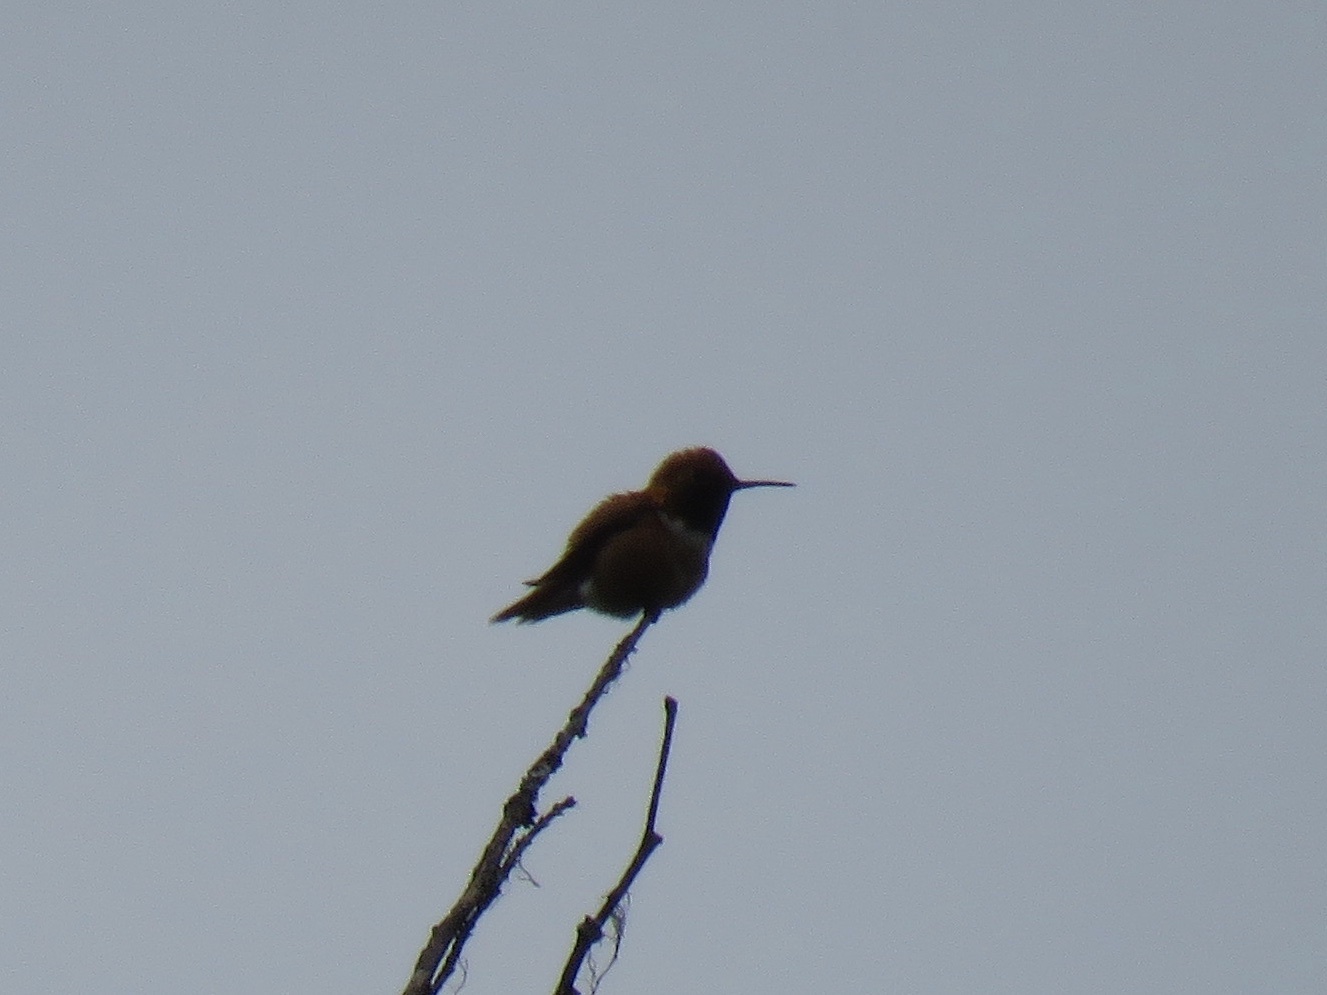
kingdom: Animalia
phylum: Chordata
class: Aves
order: Apodiformes
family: Trochilidae
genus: Selasphorus
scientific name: Selasphorus rufus
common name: Rufous hummingbird
